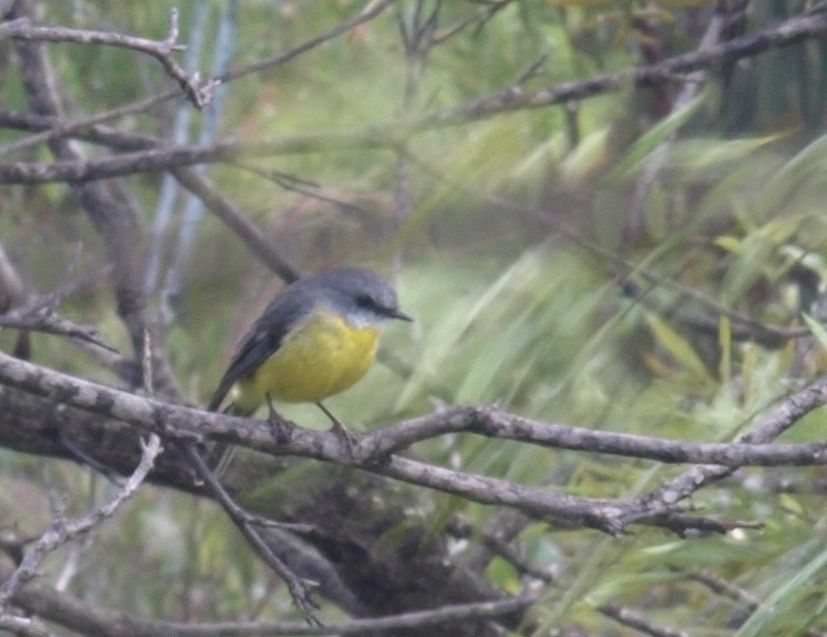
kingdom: Animalia
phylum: Chordata
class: Aves
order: Passeriformes
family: Petroicidae
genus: Eopsaltria
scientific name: Eopsaltria australis
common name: Eastern yellow robin
